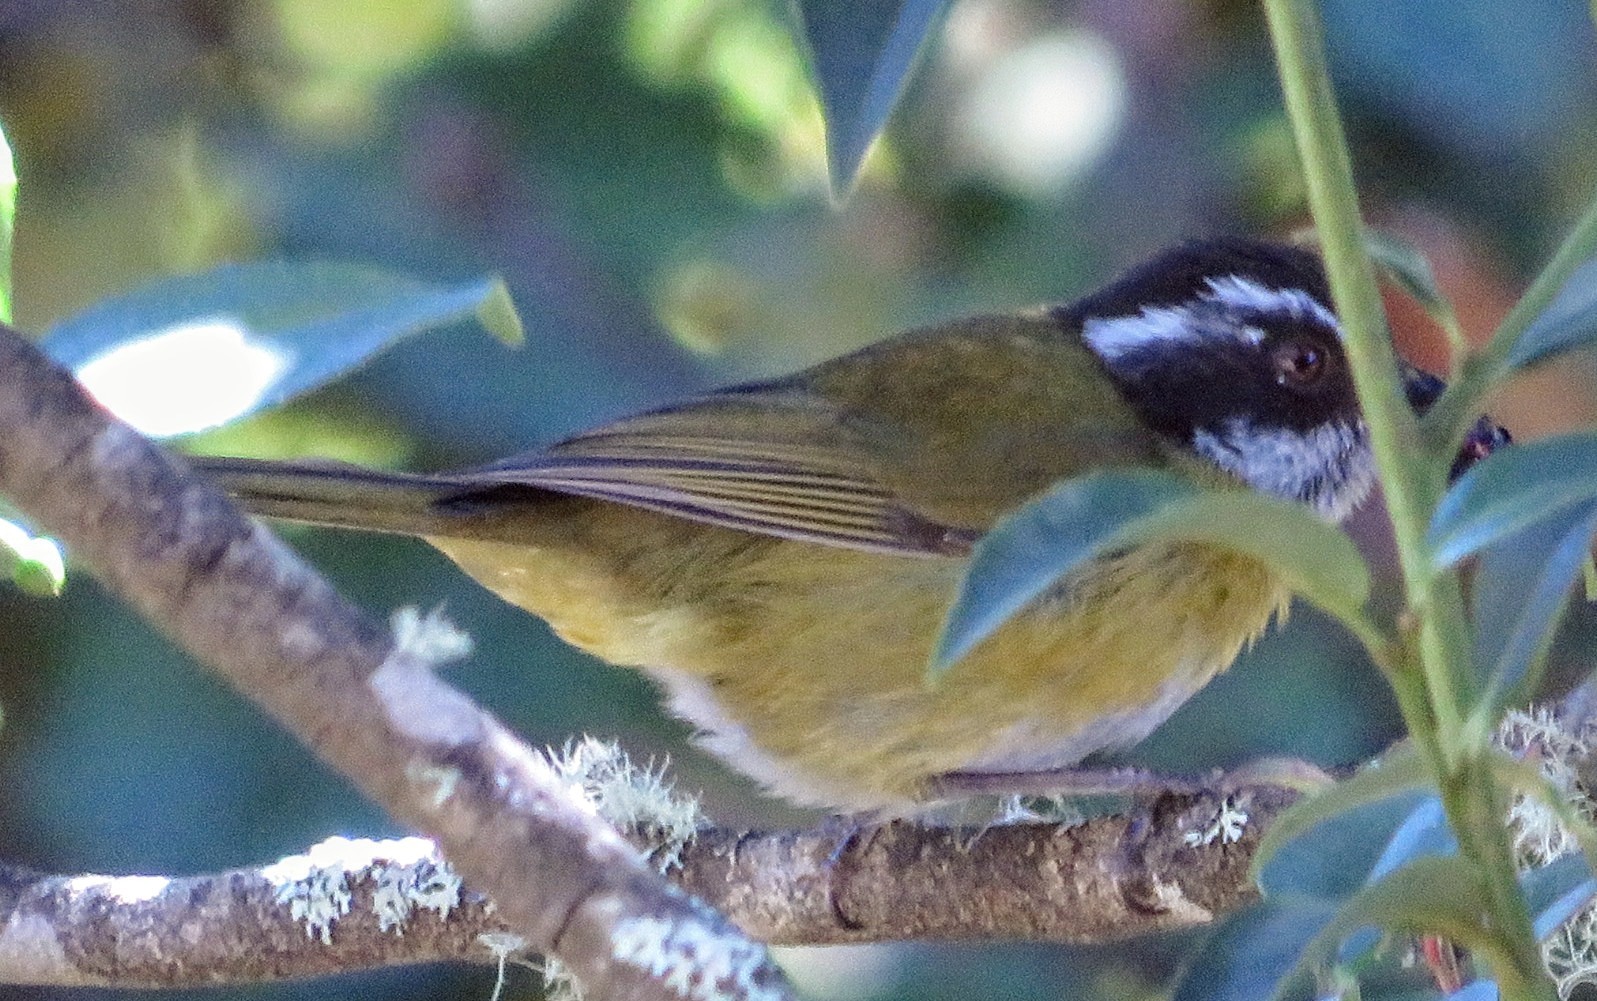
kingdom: Animalia
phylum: Chordata
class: Aves
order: Passeriformes
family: Passerellidae
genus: Chlorospingus
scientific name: Chlorospingus pileatus
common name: Sooty-capped bush-tanager
